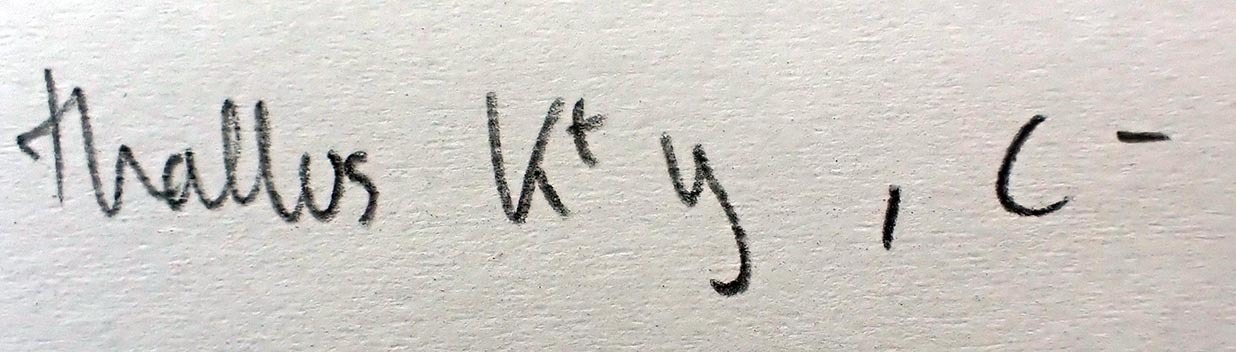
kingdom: Fungi
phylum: Ascomycota
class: Lecanoromycetes
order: Lecanorales
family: Lecanoraceae
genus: Lecanora
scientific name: Lecanora kohu
